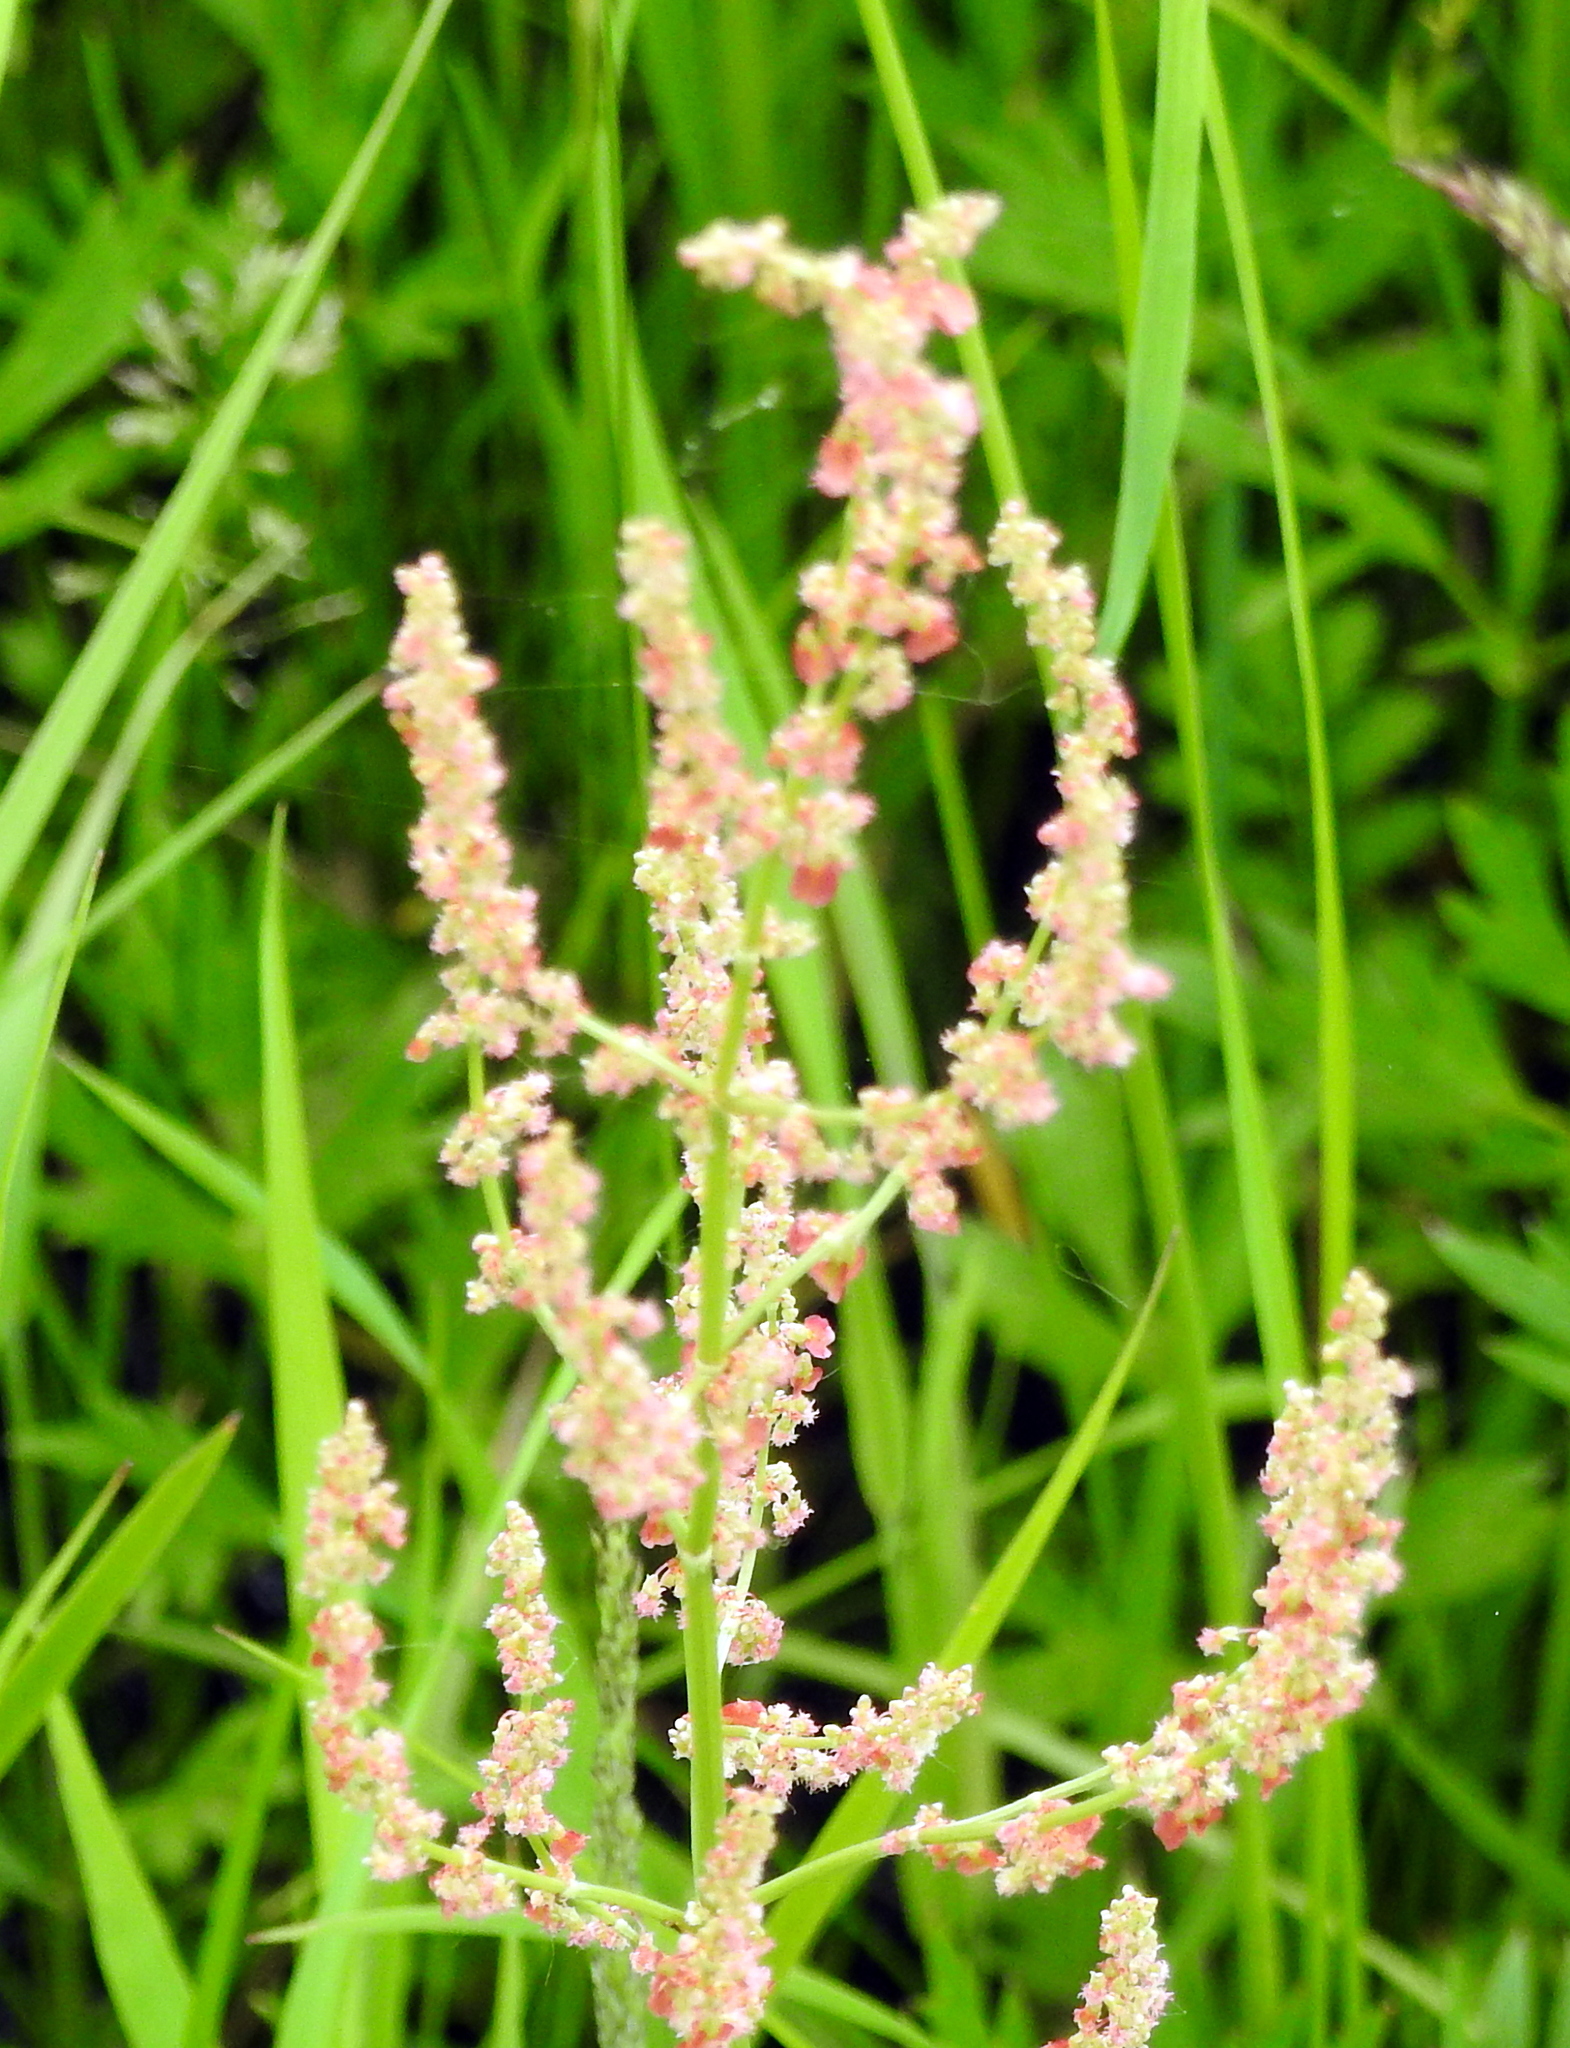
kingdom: Plantae
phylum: Tracheophyta
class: Magnoliopsida
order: Caryophyllales
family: Polygonaceae
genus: Rumex
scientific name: Rumex acetosella
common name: Common sheep sorrel
